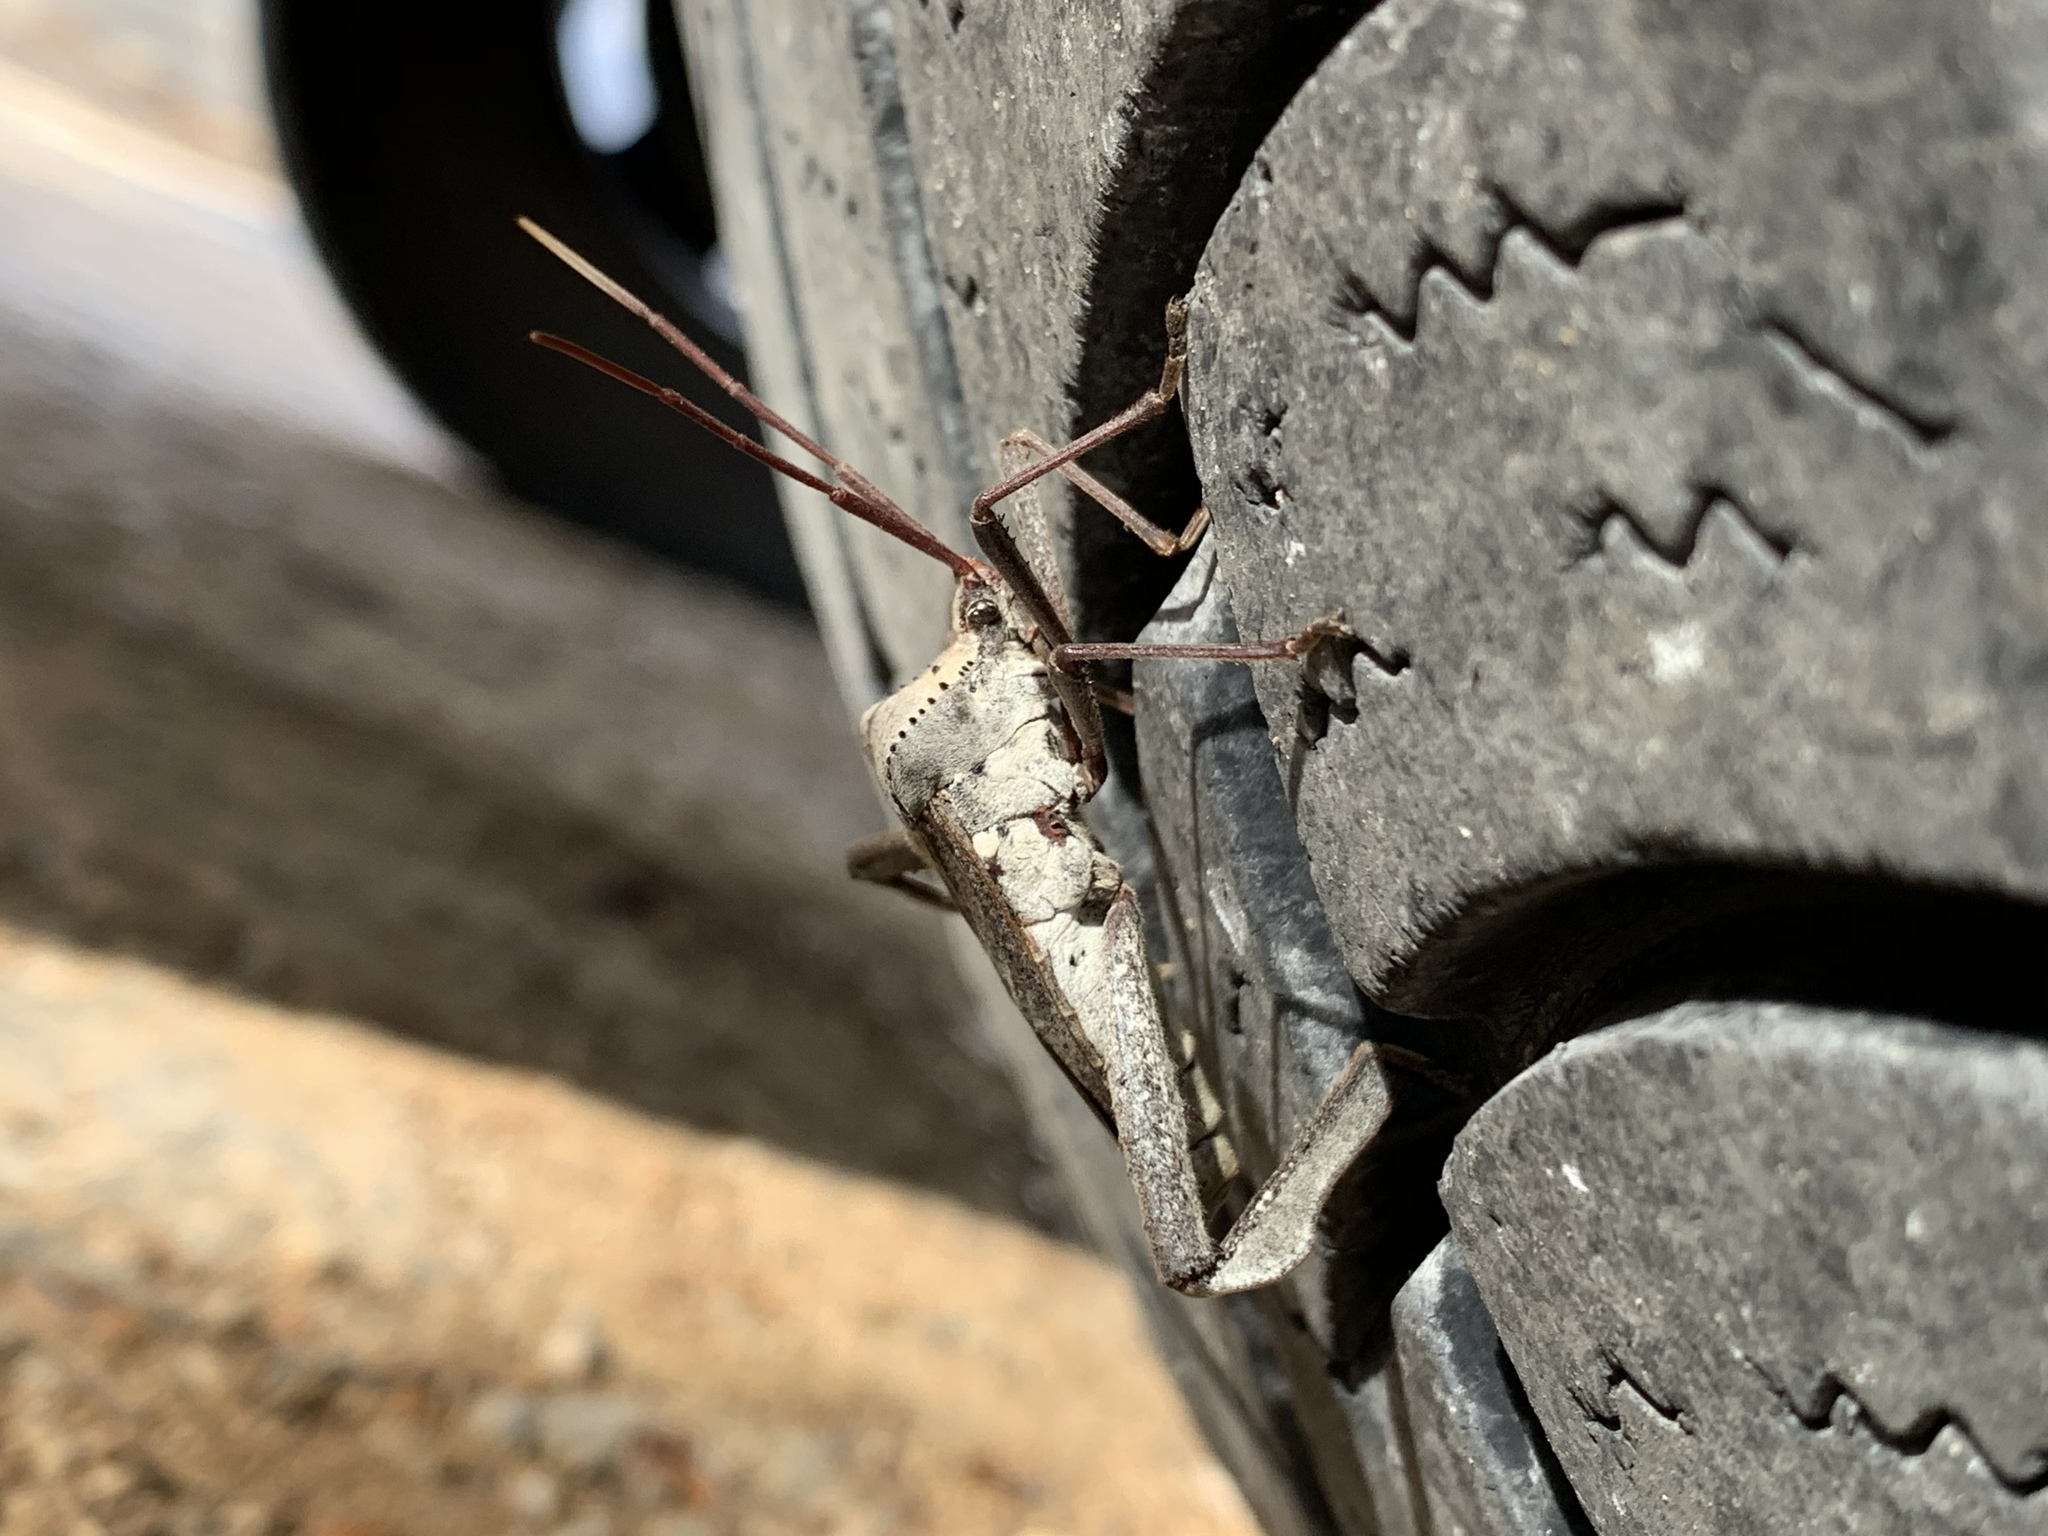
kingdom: Animalia
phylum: Arthropoda
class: Insecta
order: Hemiptera
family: Coreidae
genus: Acanthocephala
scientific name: Acanthocephala declivis
